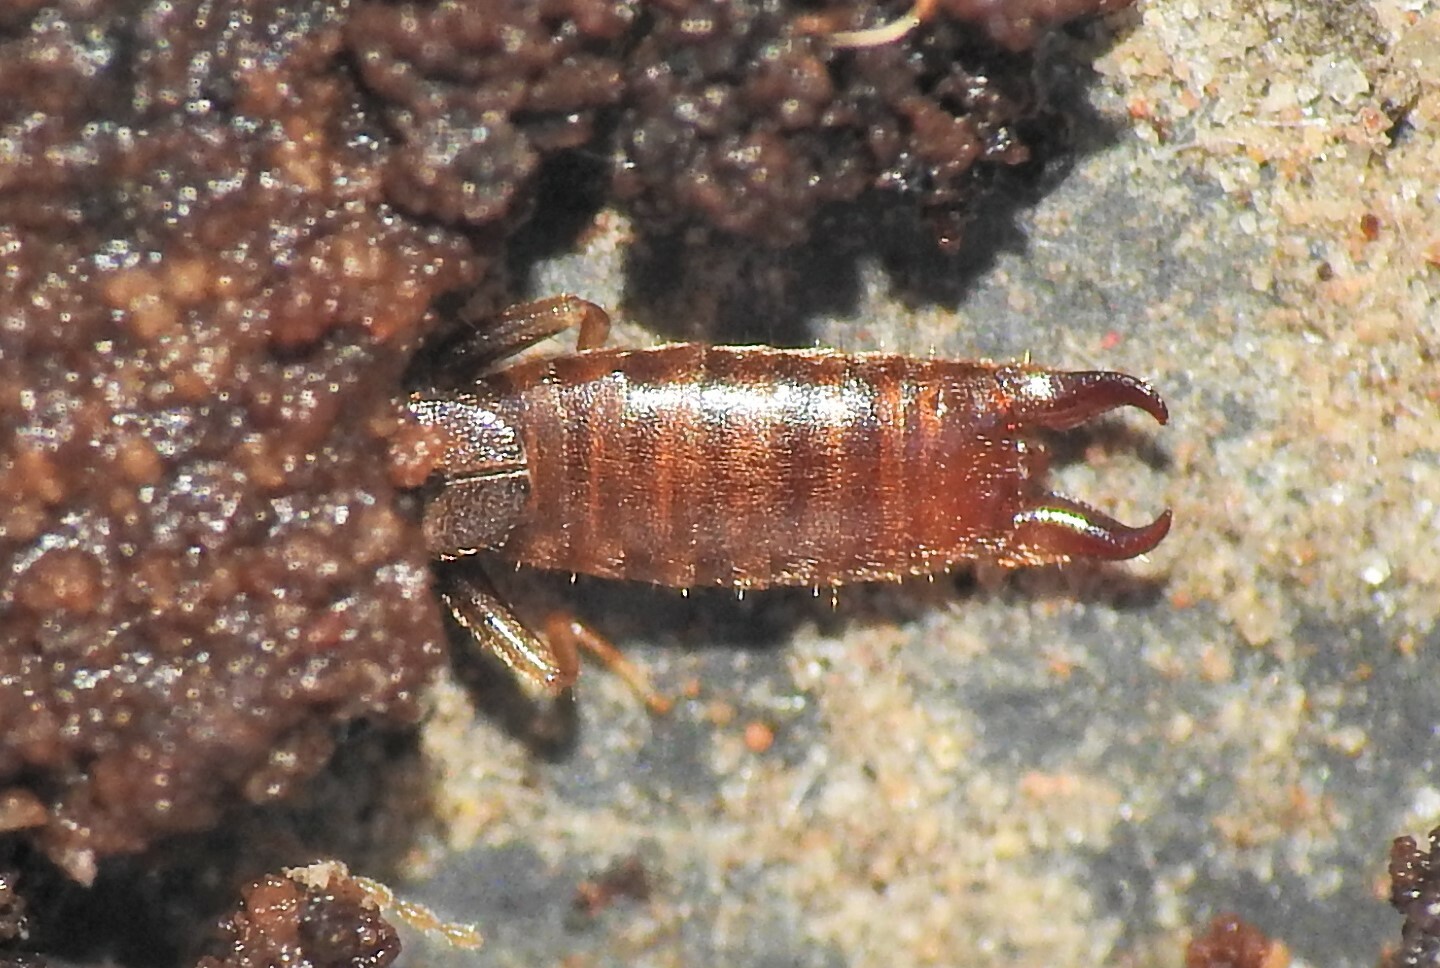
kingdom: Animalia
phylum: Arthropoda
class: Insecta
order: Dermaptera
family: Spongiphoridae
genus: Spirolabia
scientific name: Spirolabia pilicornis
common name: Earwig
